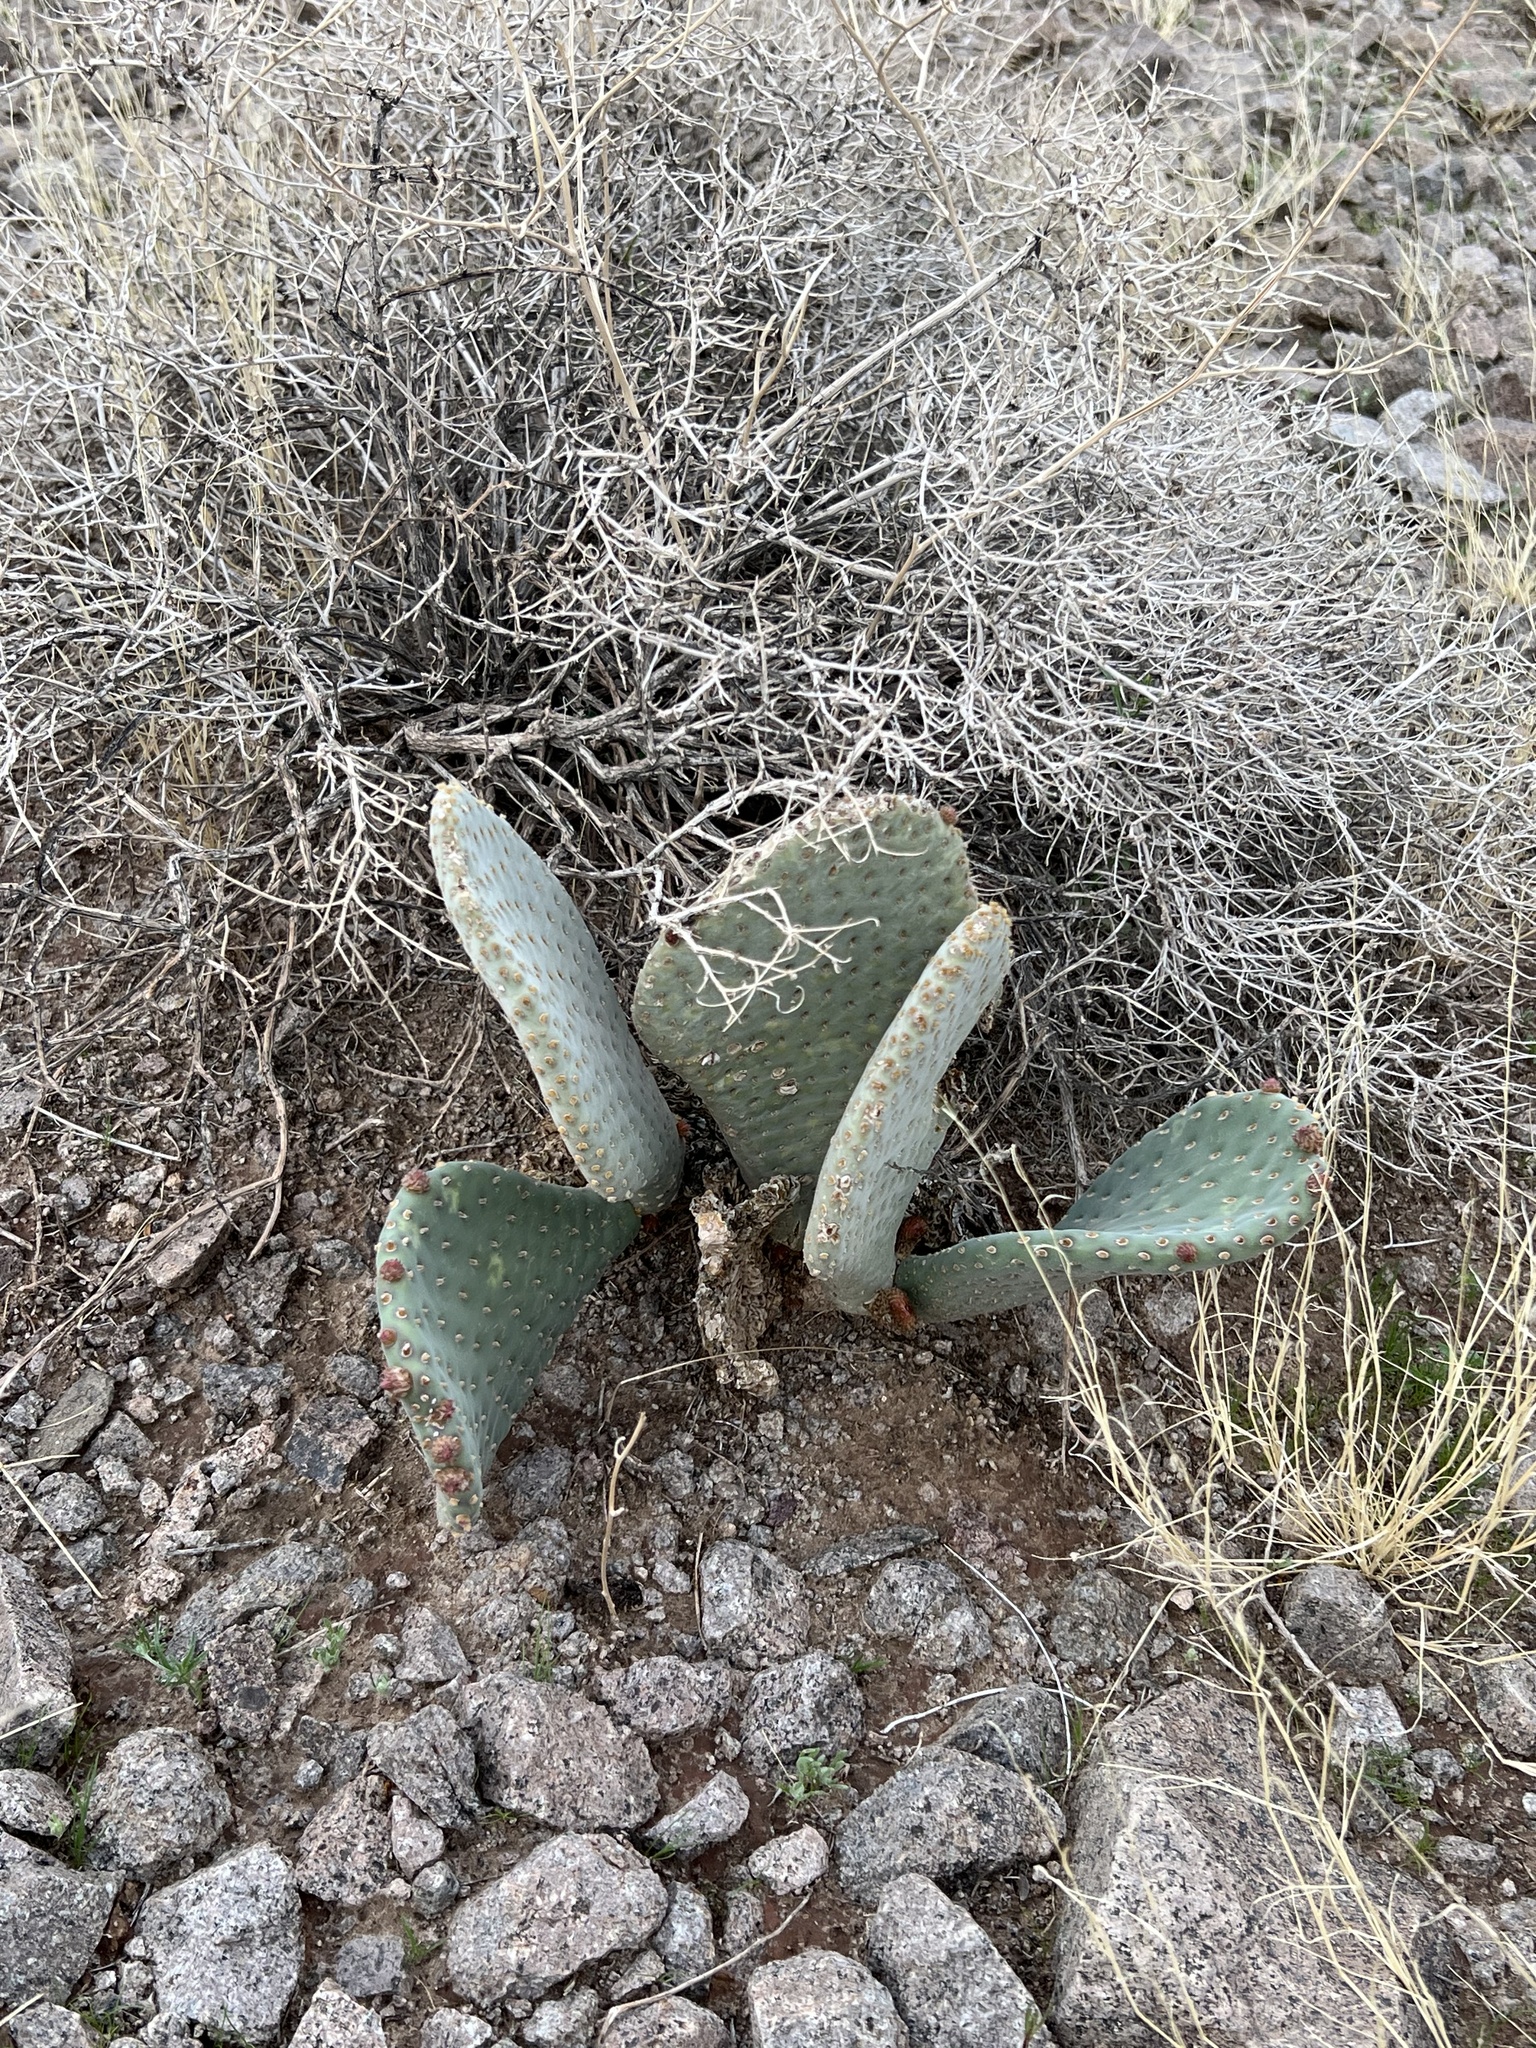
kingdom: Plantae
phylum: Tracheophyta
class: Magnoliopsida
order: Caryophyllales
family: Cactaceae
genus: Opuntia
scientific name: Opuntia basilaris
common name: Beavertail prickly-pear
